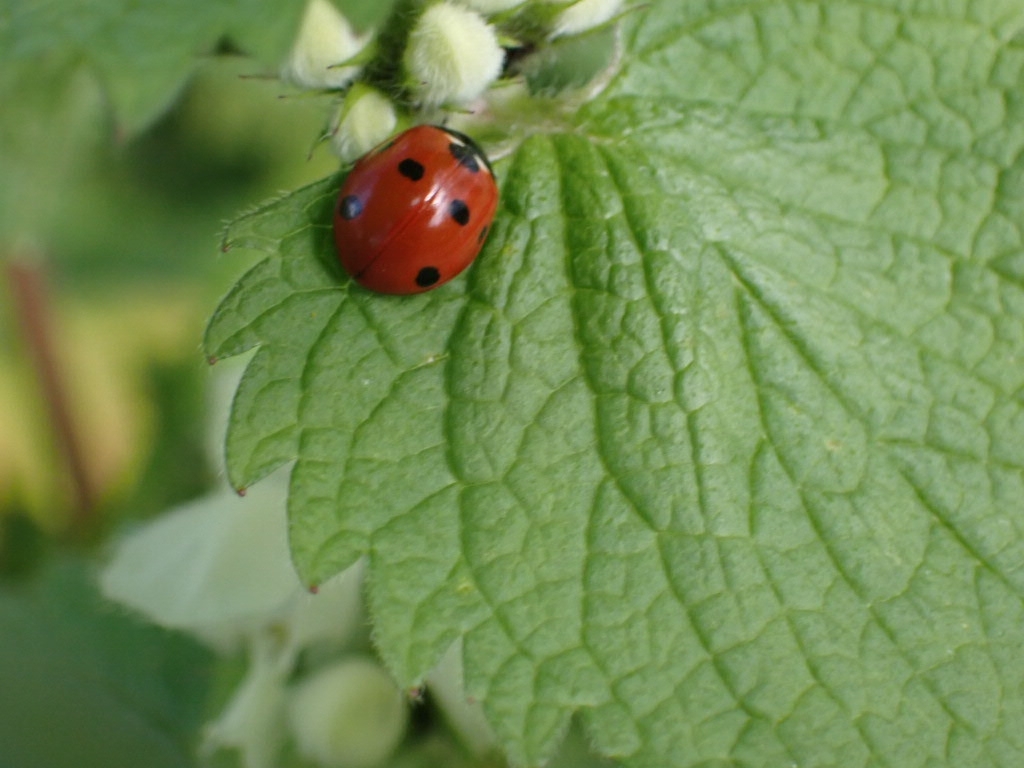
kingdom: Animalia
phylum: Arthropoda
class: Insecta
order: Coleoptera
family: Coccinellidae
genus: Coccinella
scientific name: Coccinella septempunctata
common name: Sevenspotted lady beetle
